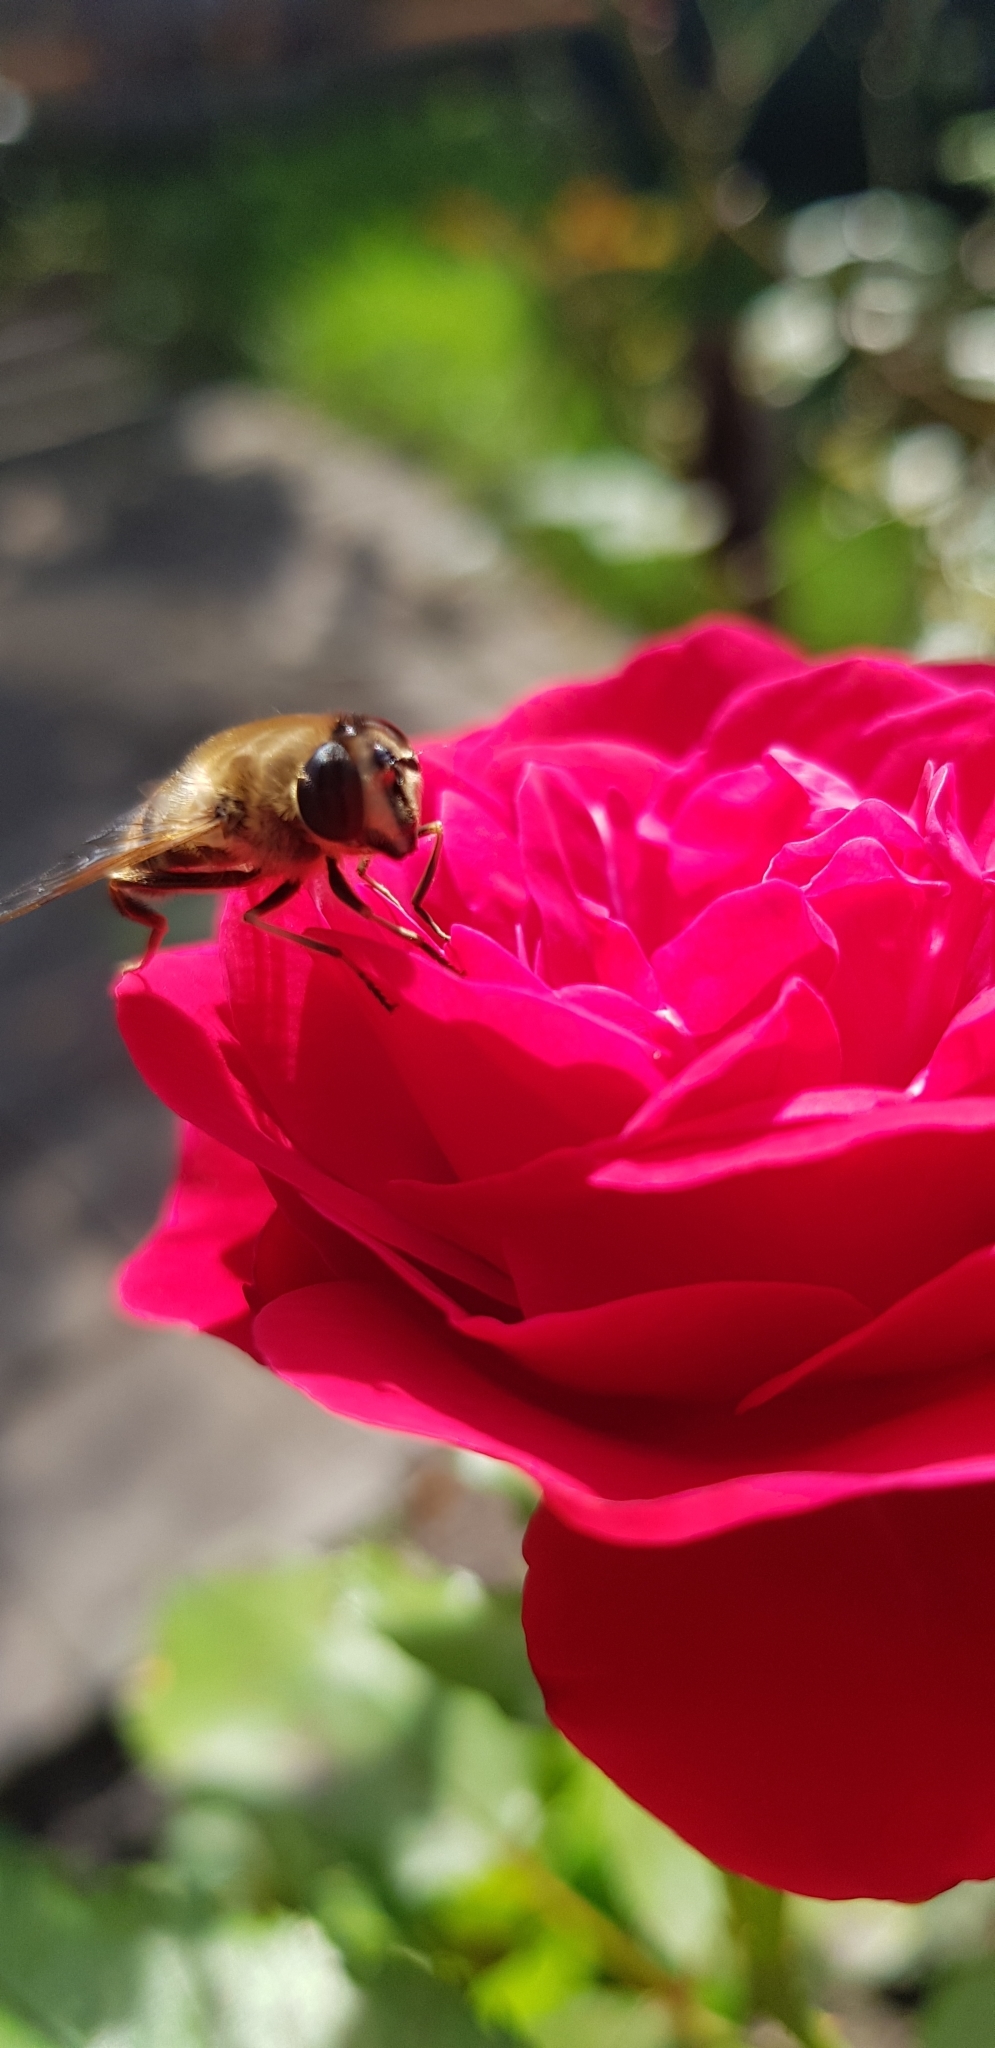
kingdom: Animalia
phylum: Arthropoda
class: Insecta
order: Diptera
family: Syrphidae
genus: Eristalis
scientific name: Eristalis tenax
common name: Drone fly
